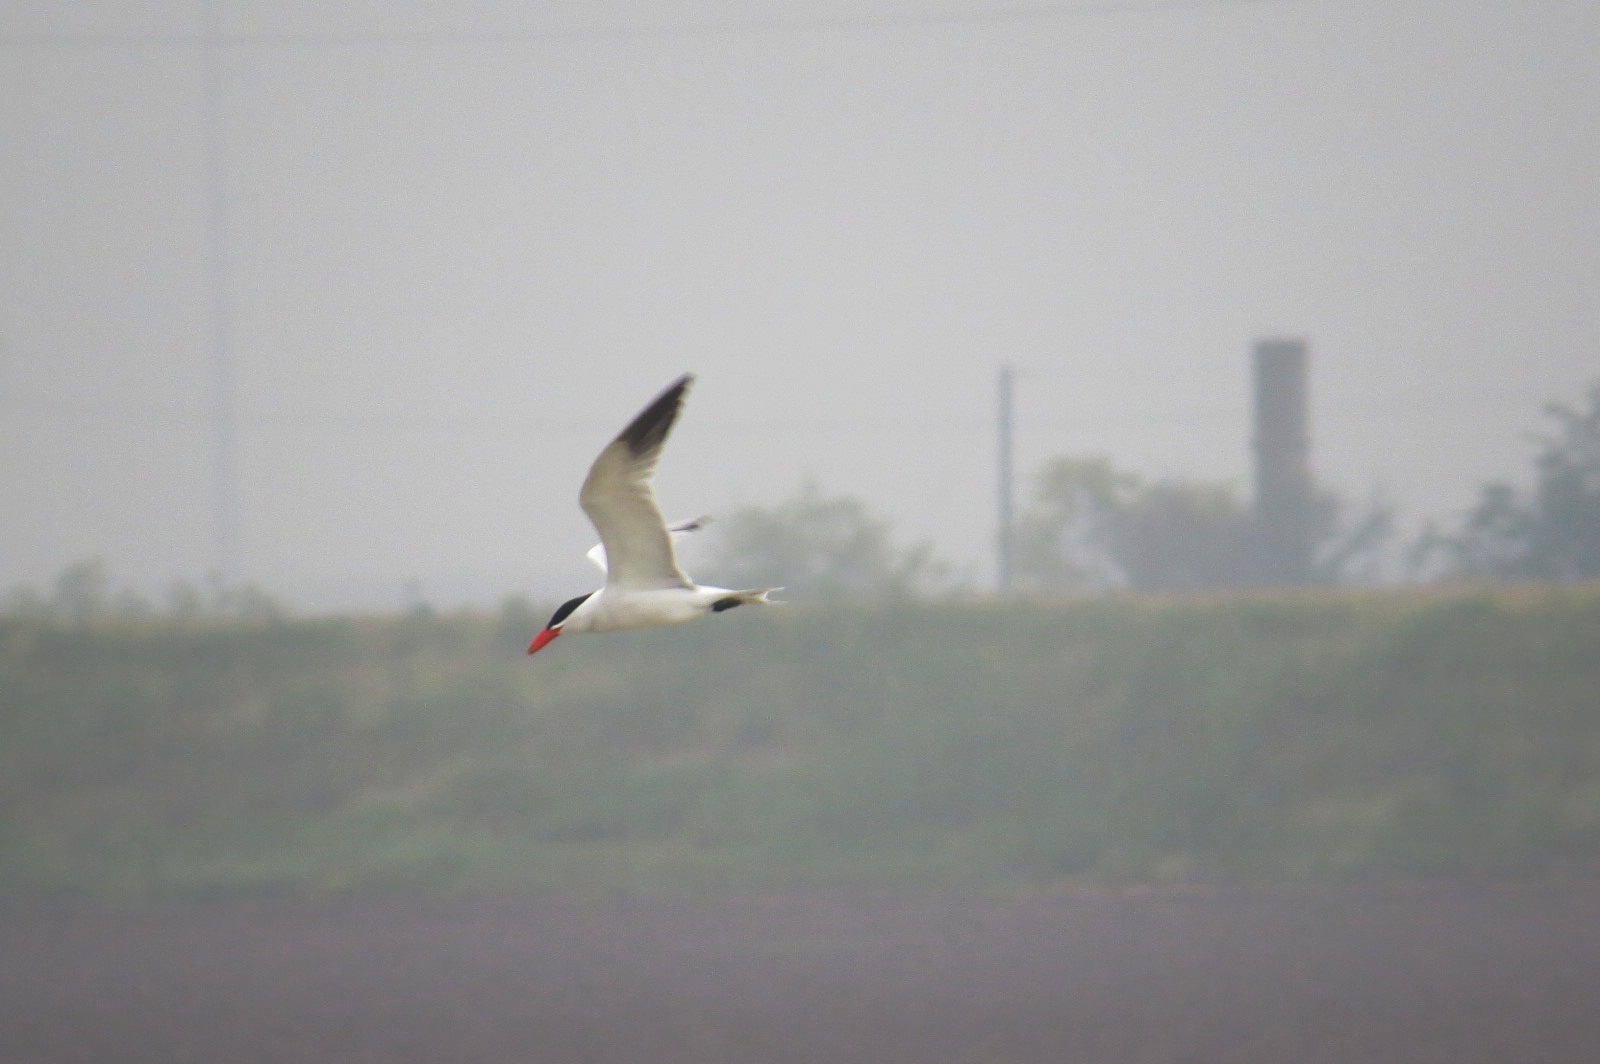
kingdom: Animalia
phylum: Chordata
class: Aves
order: Charadriiformes
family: Laridae
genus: Hydroprogne
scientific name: Hydroprogne caspia
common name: Caspian tern
